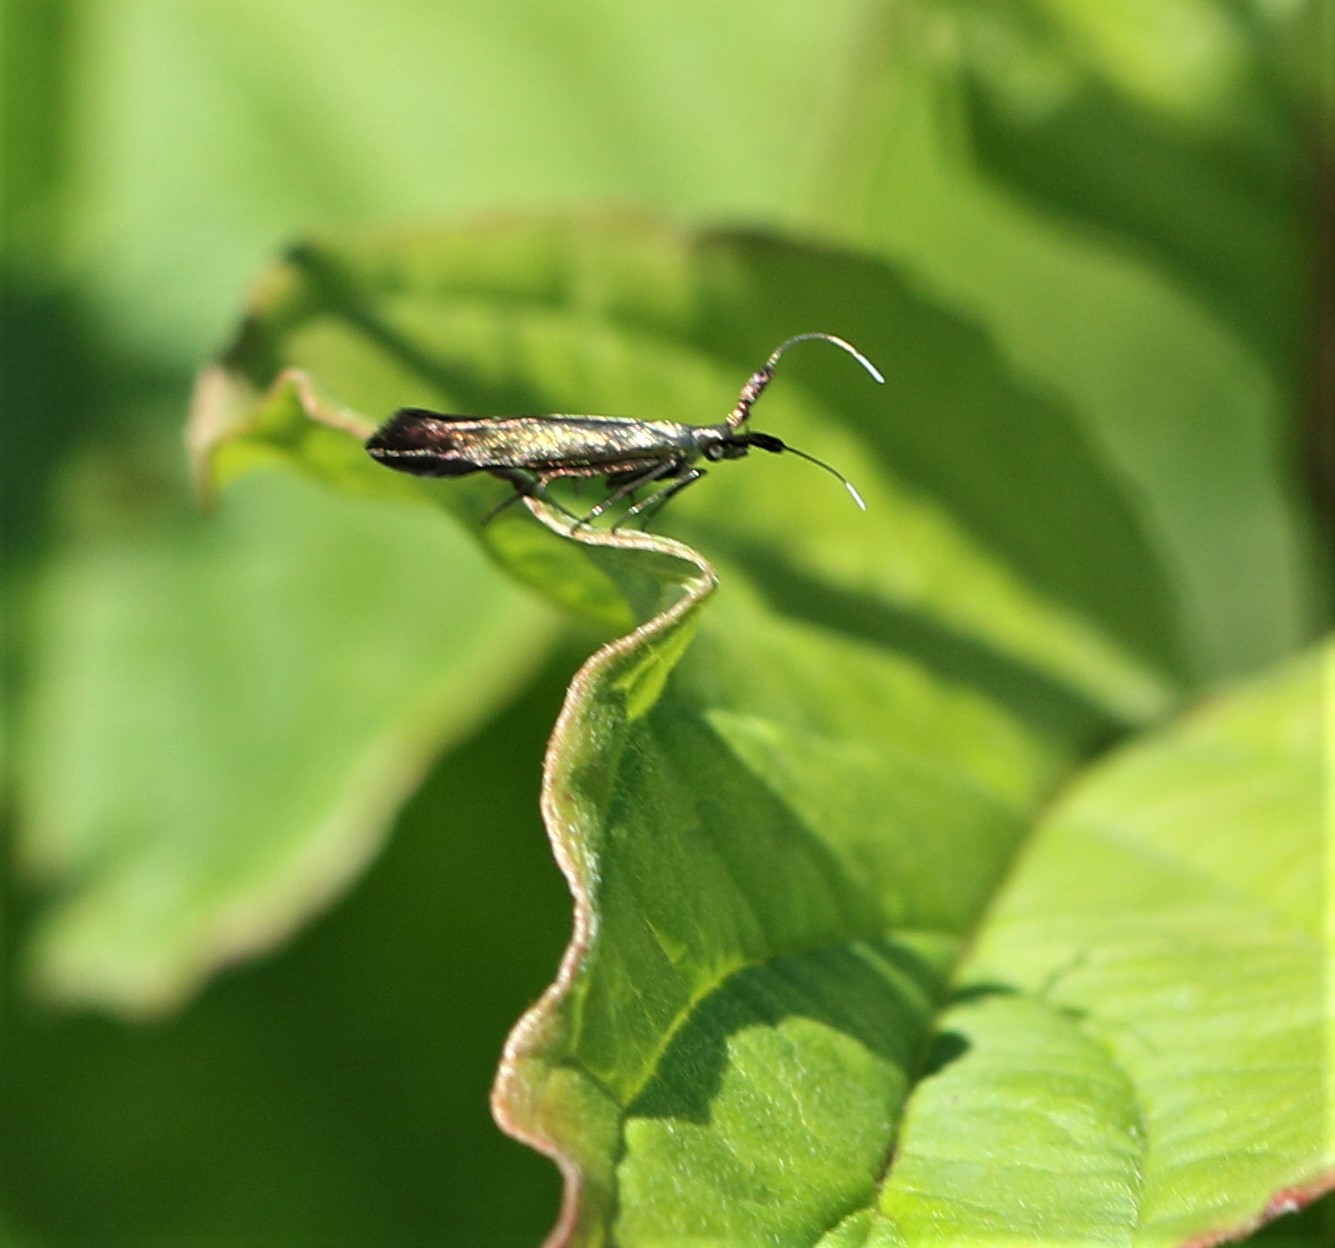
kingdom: Animalia
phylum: Arthropoda
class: Insecta
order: Lepidoptera
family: Coleophoridae
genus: Coleophora
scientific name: Coleophora mayrella
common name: Meadow case-bearer
